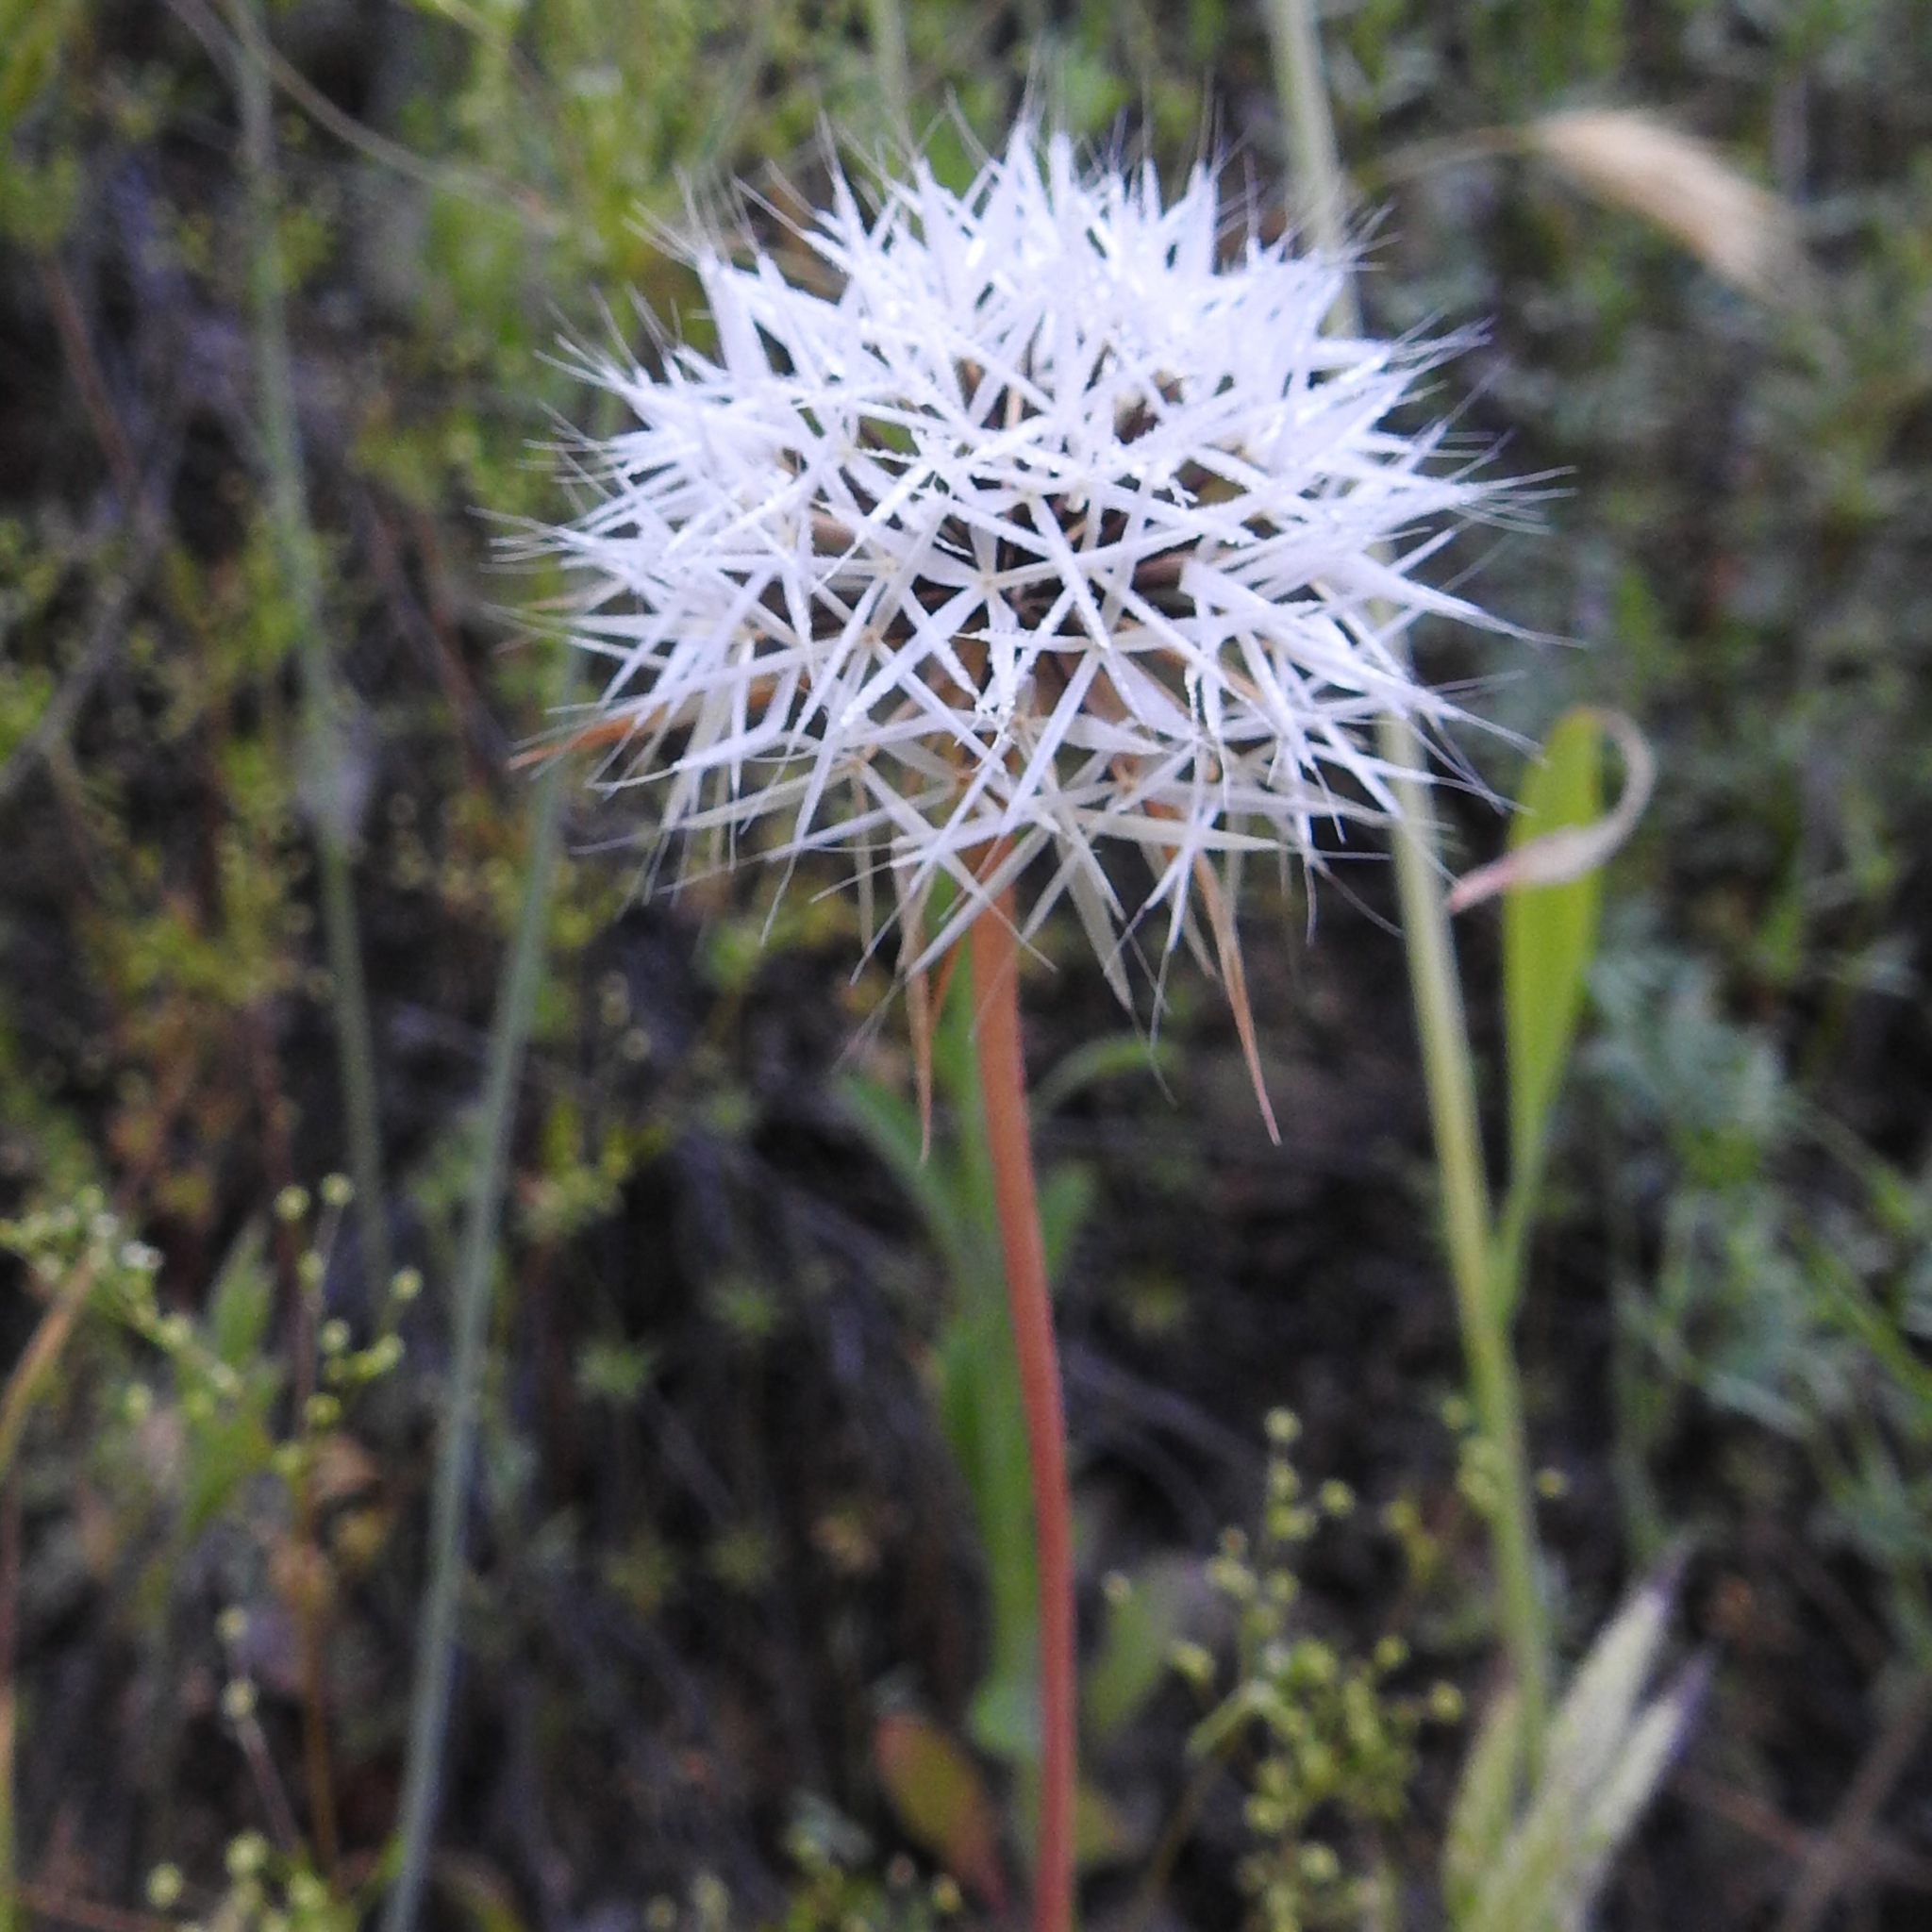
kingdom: Plantae
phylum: Tracheophyta
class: Magnoliopsida
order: Asterales
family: Asteraceae
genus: Microseris
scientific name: Microseris lindleyi
